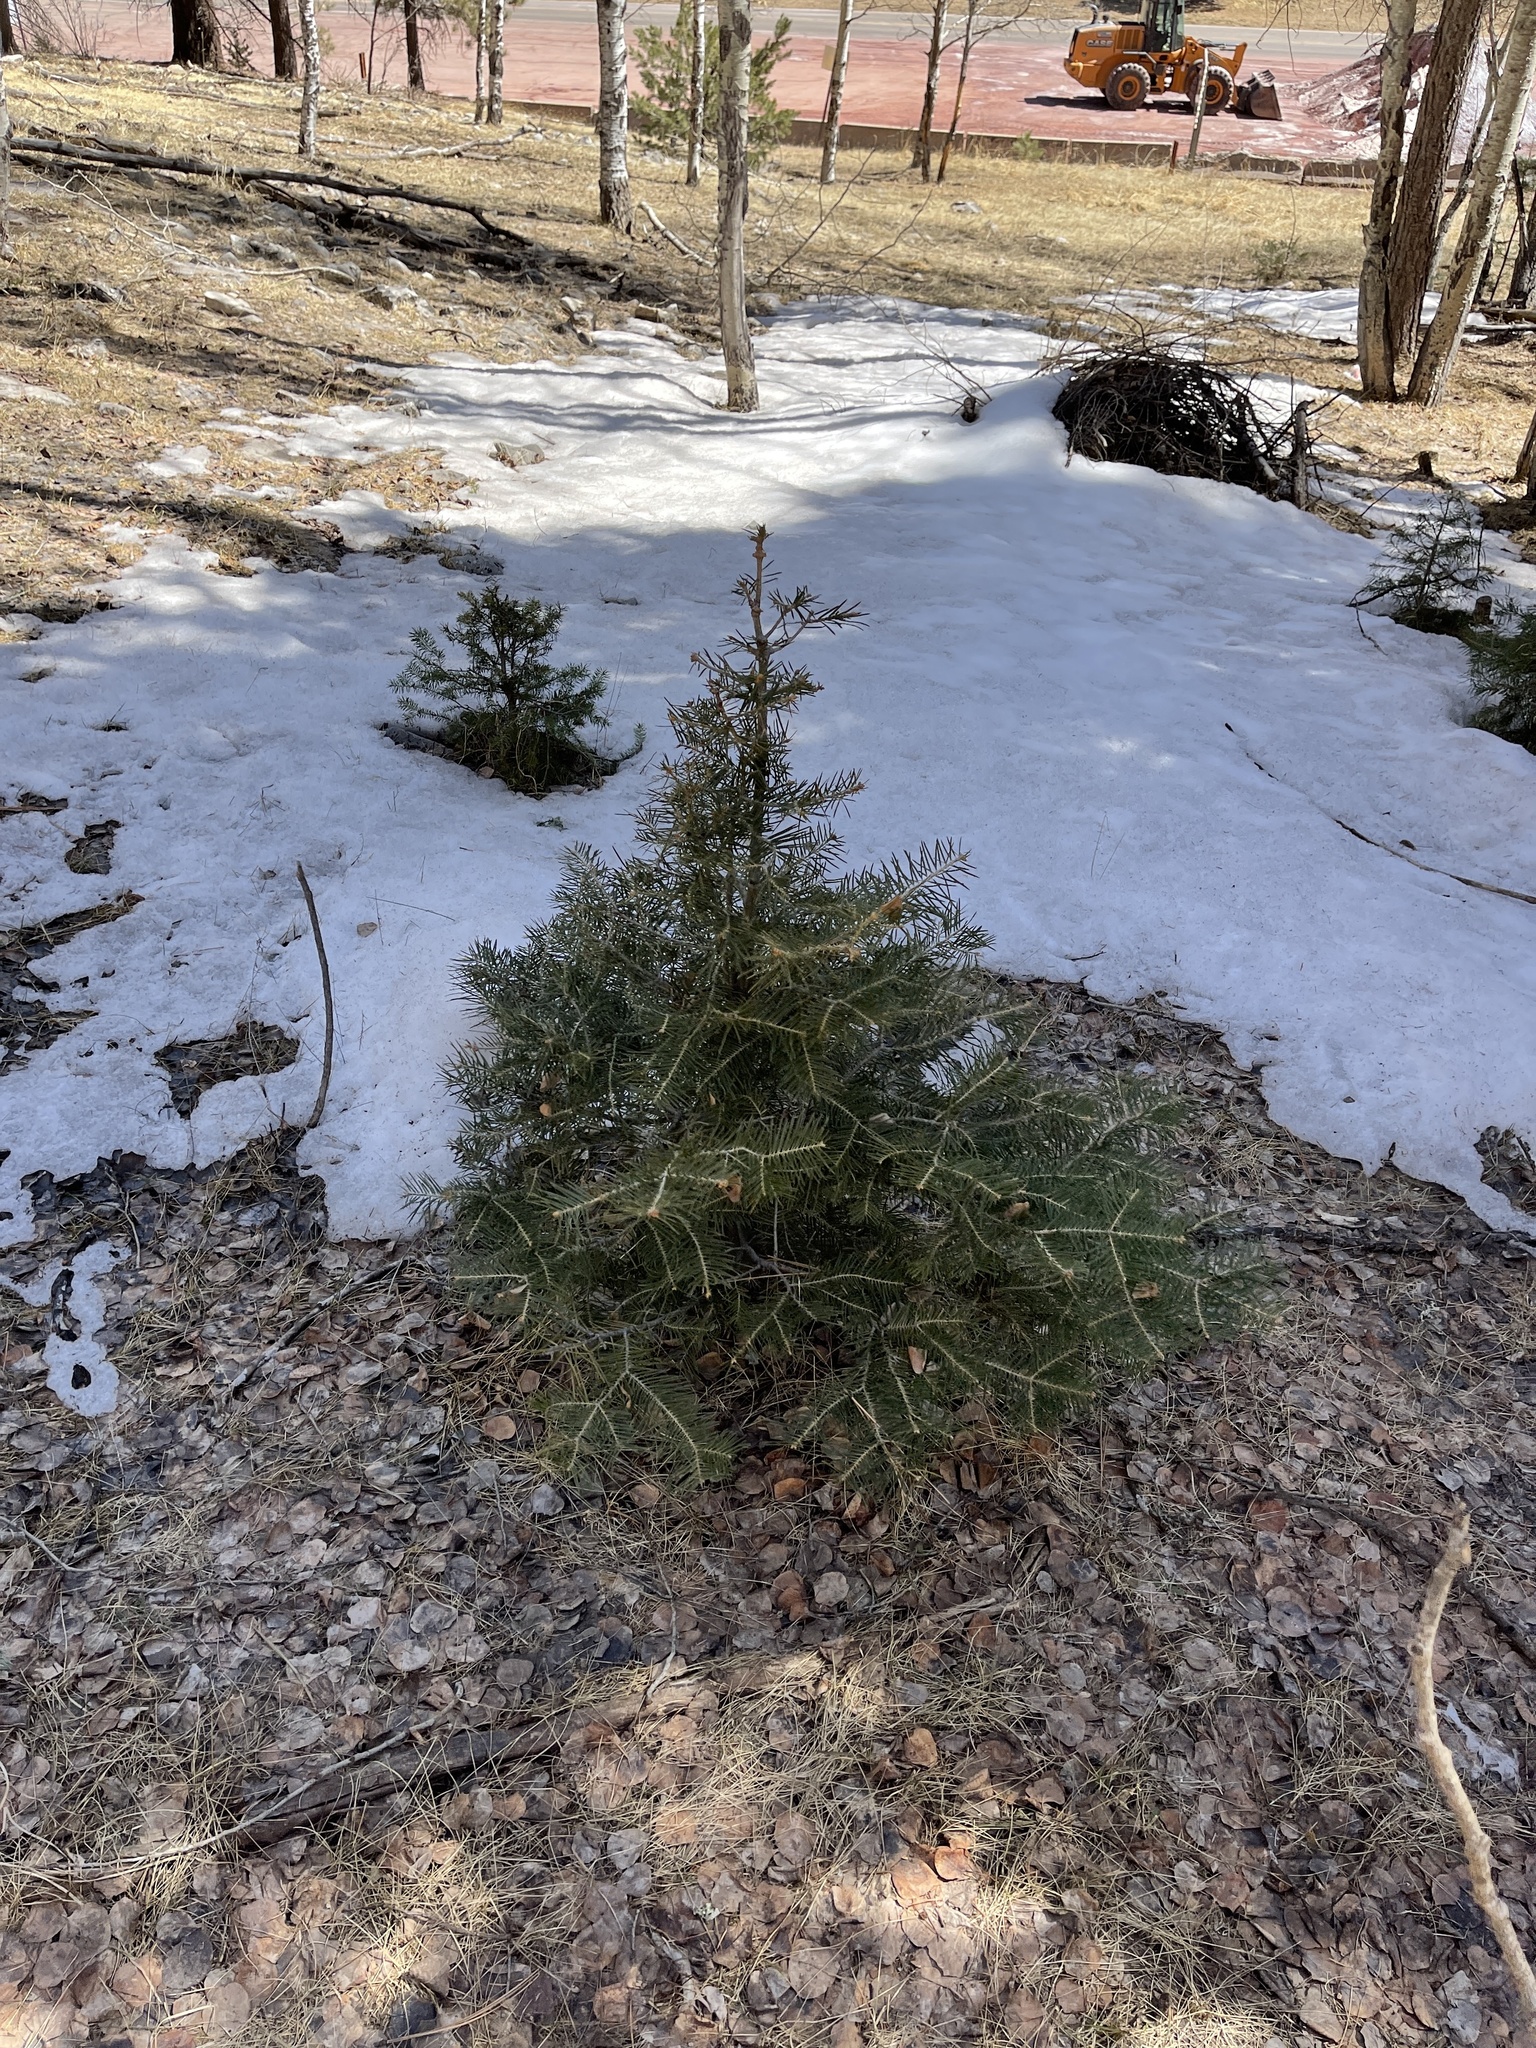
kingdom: Plantae
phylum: Tracheophyta
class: Pinopsida
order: Pinales
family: Pinaceae
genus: Abies
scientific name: Abies concolor
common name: Colorado fir
